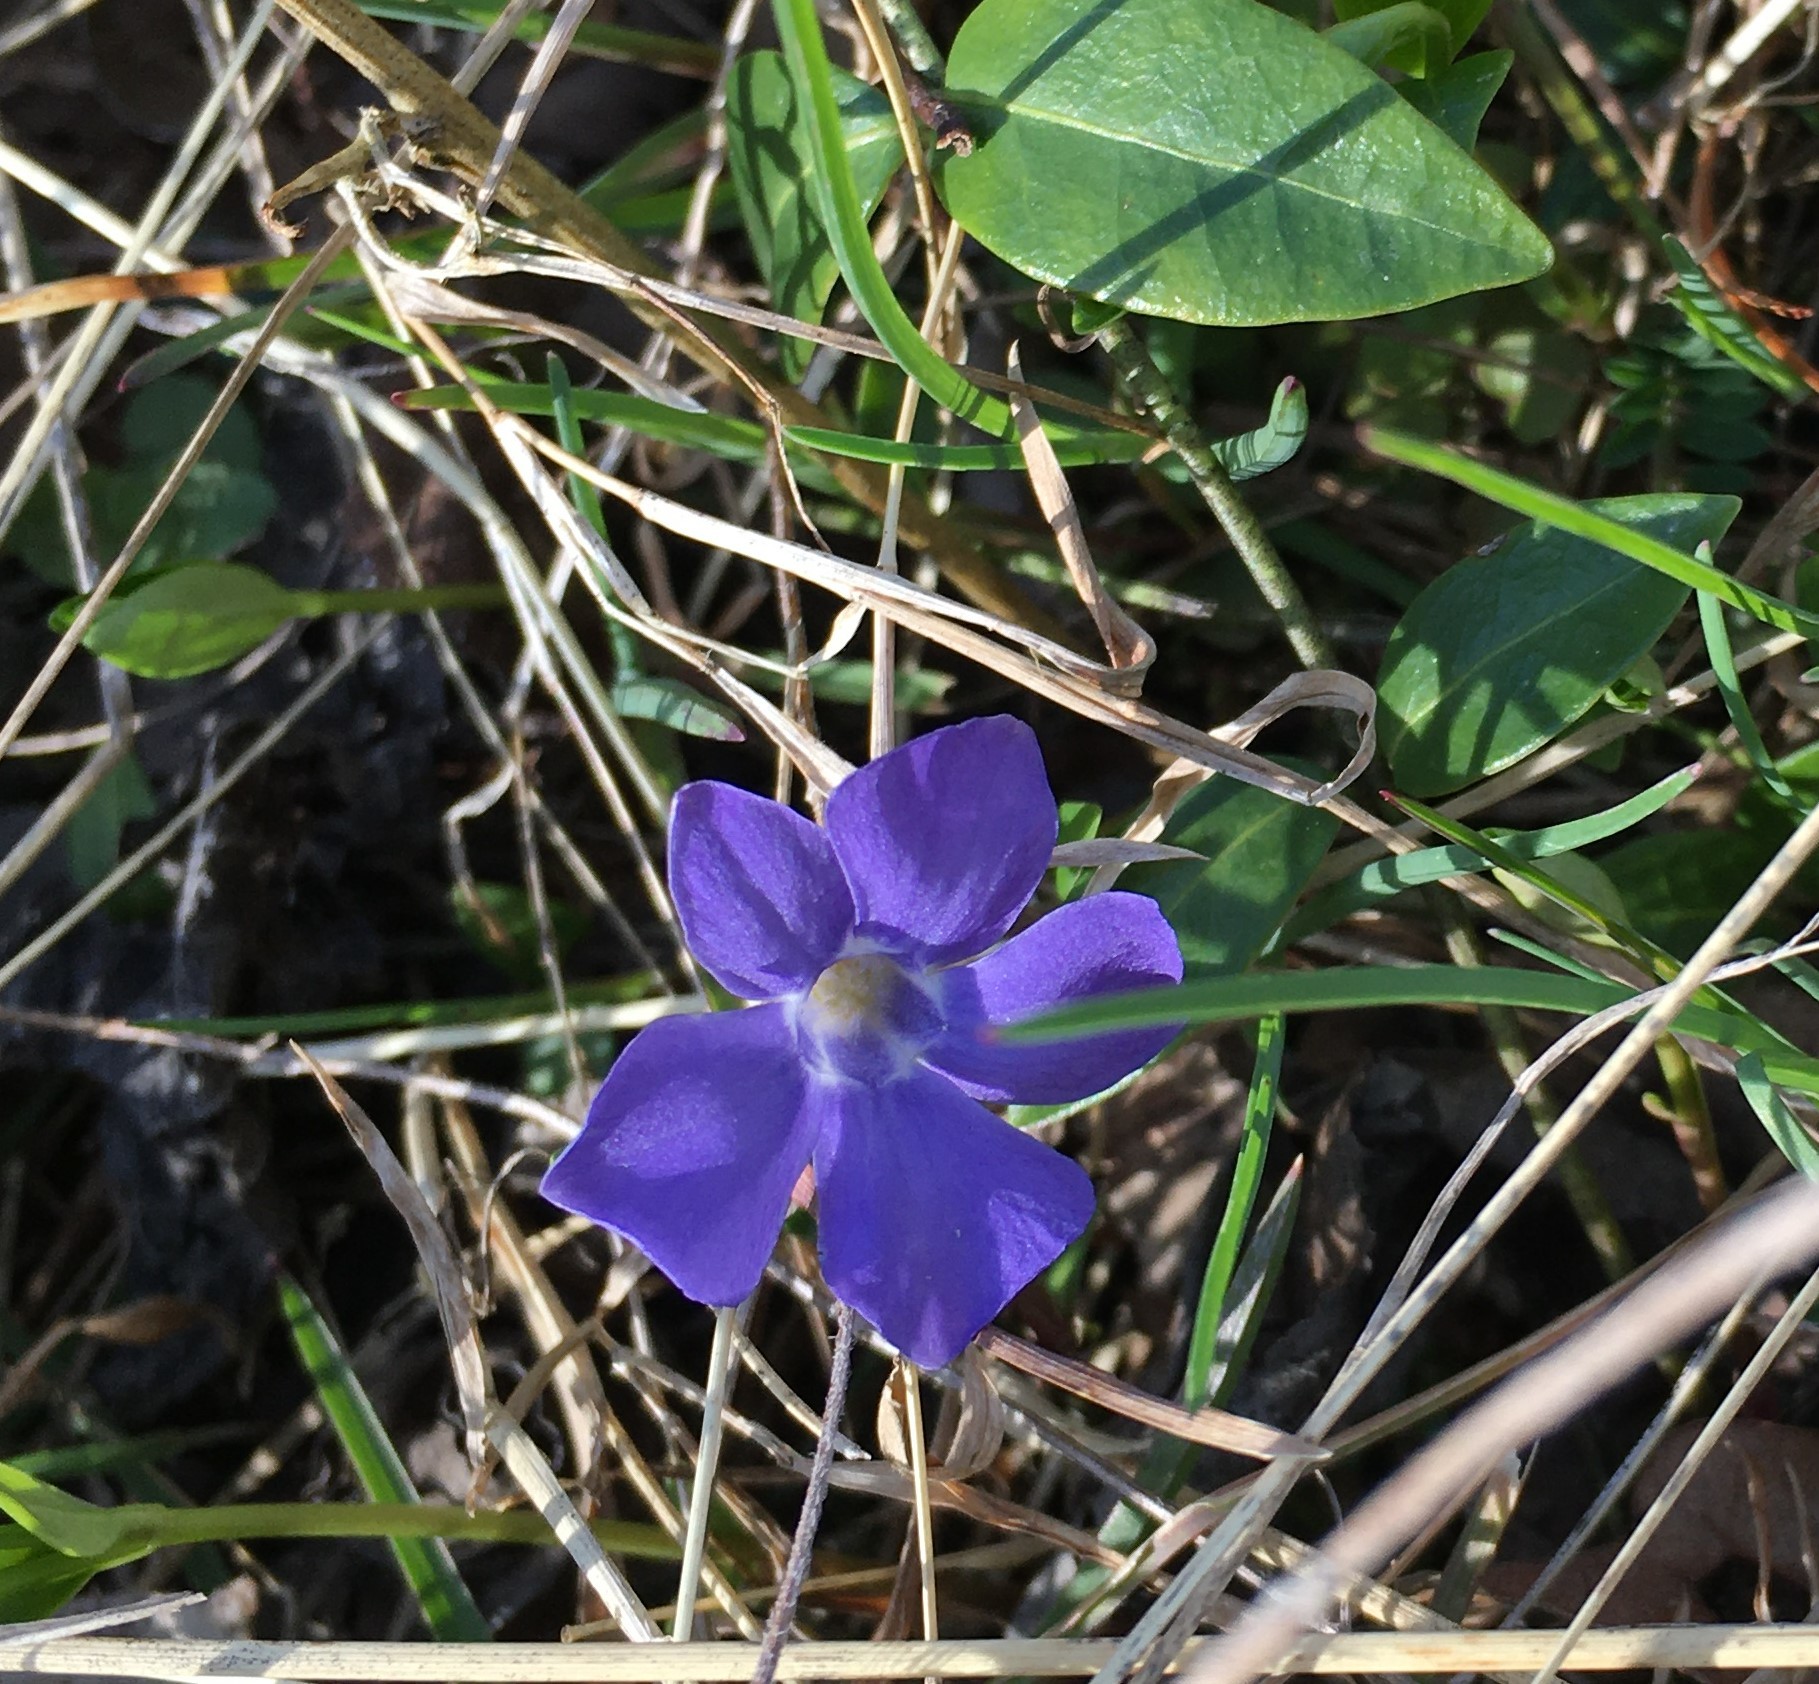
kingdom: Plantae
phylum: Tracheophyta
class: Magnoliopsida
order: Gentianales
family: Apocynaceae
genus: Vinca
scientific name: Vinca minor
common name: Lesser periwinkle
